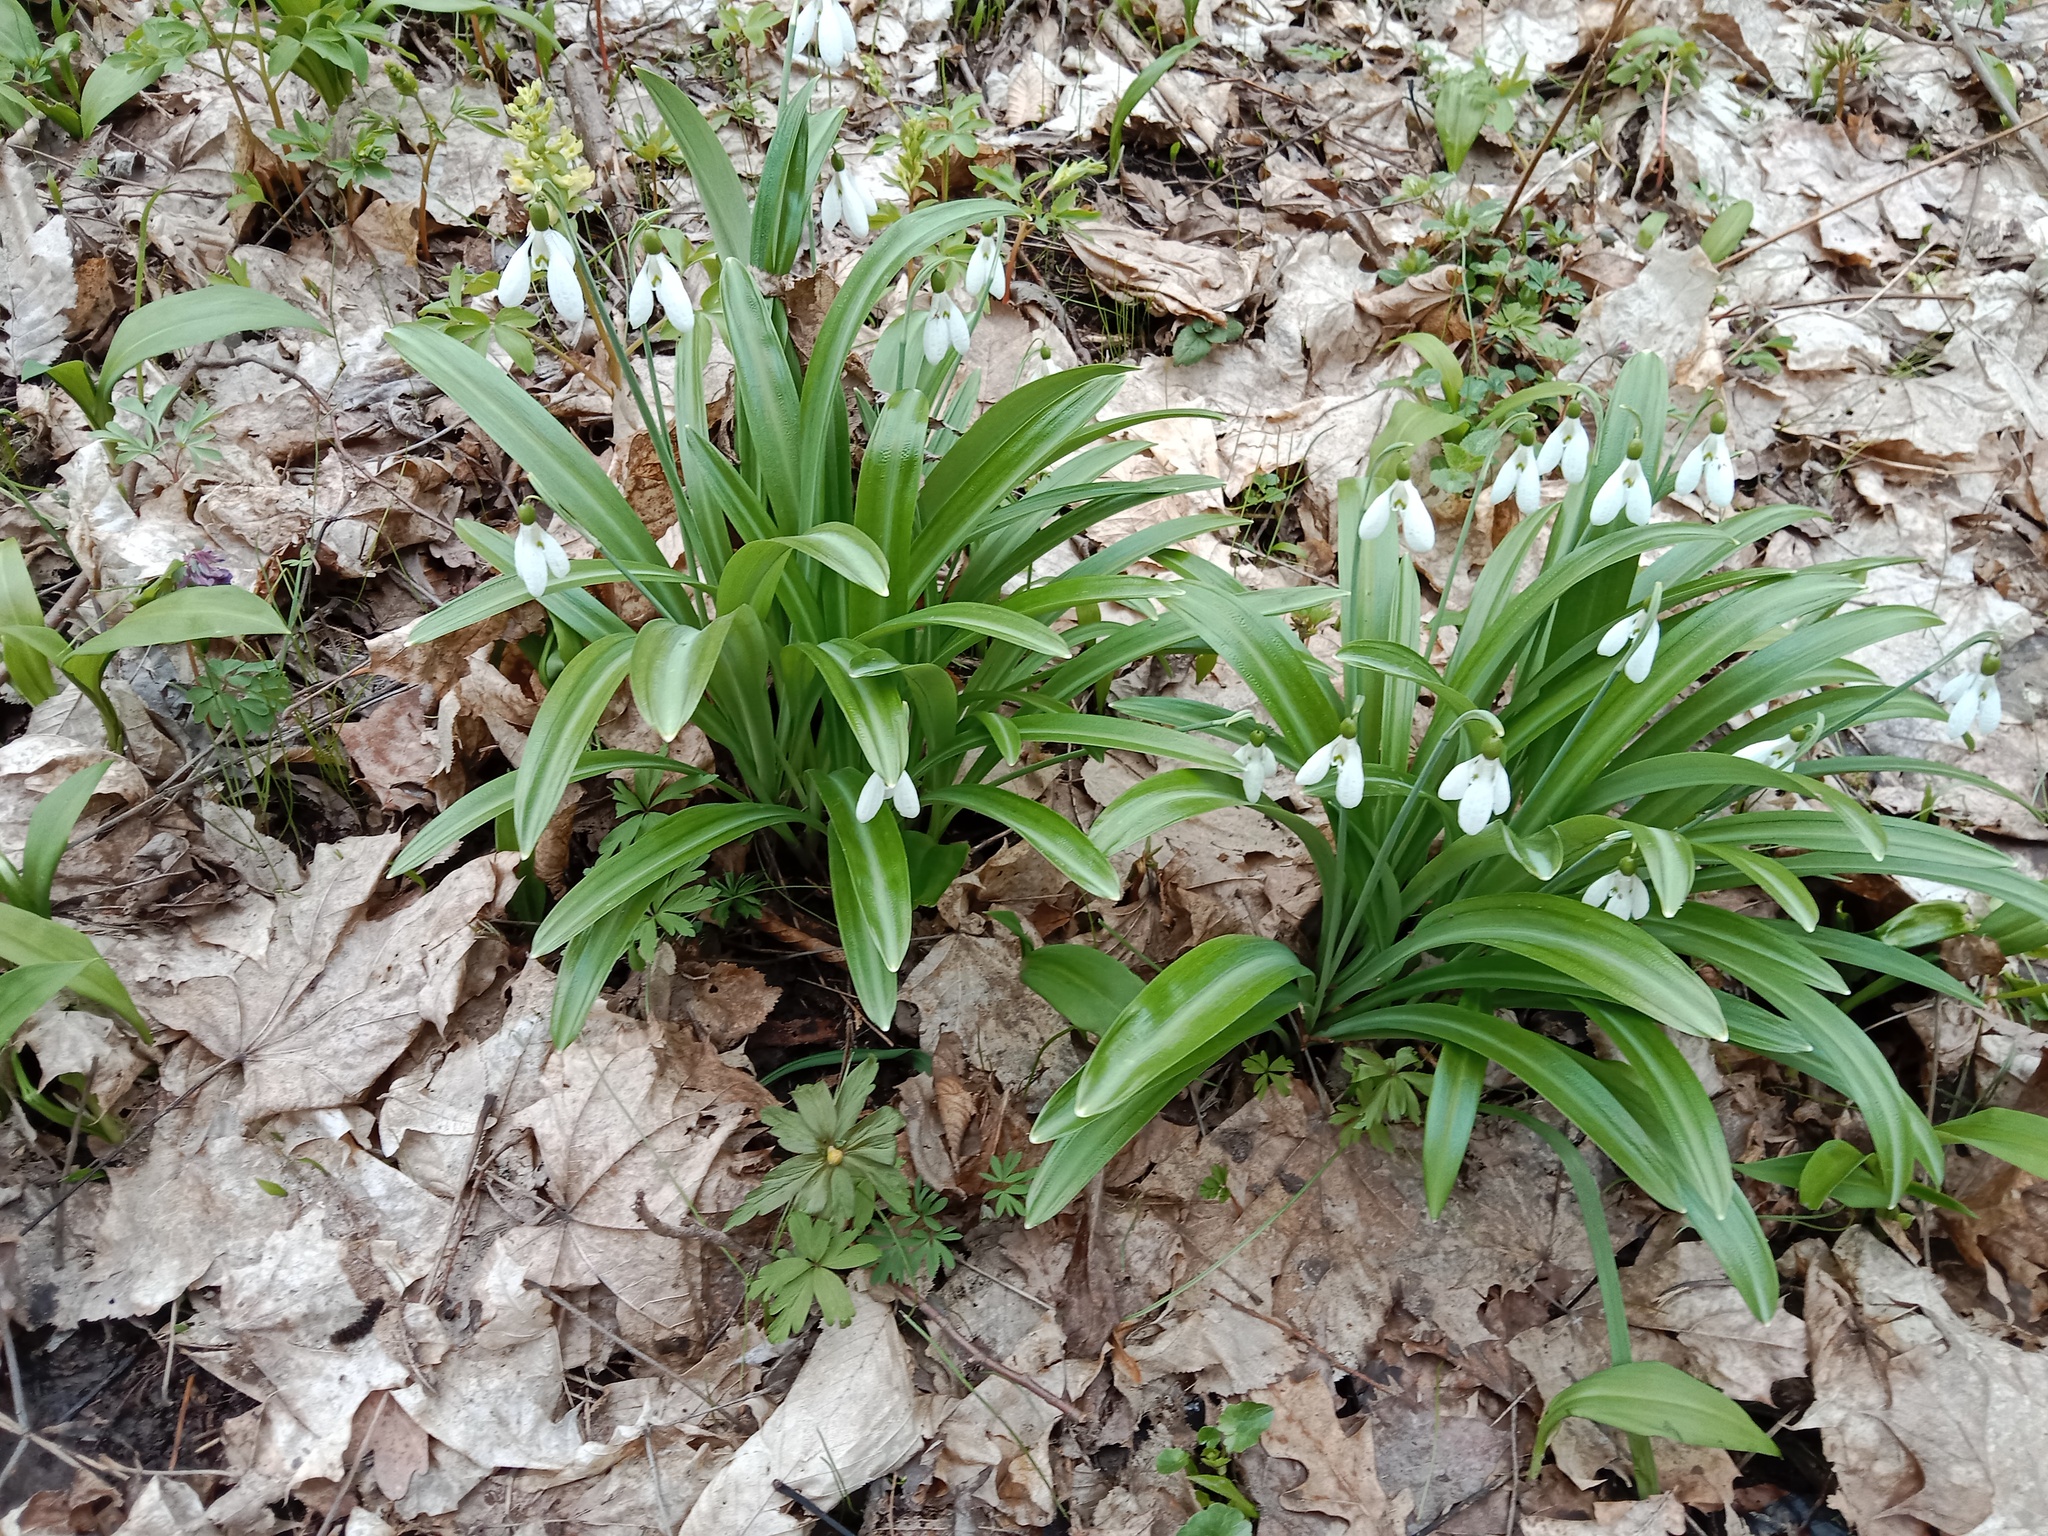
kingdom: Plantae
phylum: Tracheophyta
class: Liliopsida
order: Asparagales
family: Amaryllidaceae
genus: Galanthus
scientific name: Galanthus plicatus
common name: Pleated snowdrop
